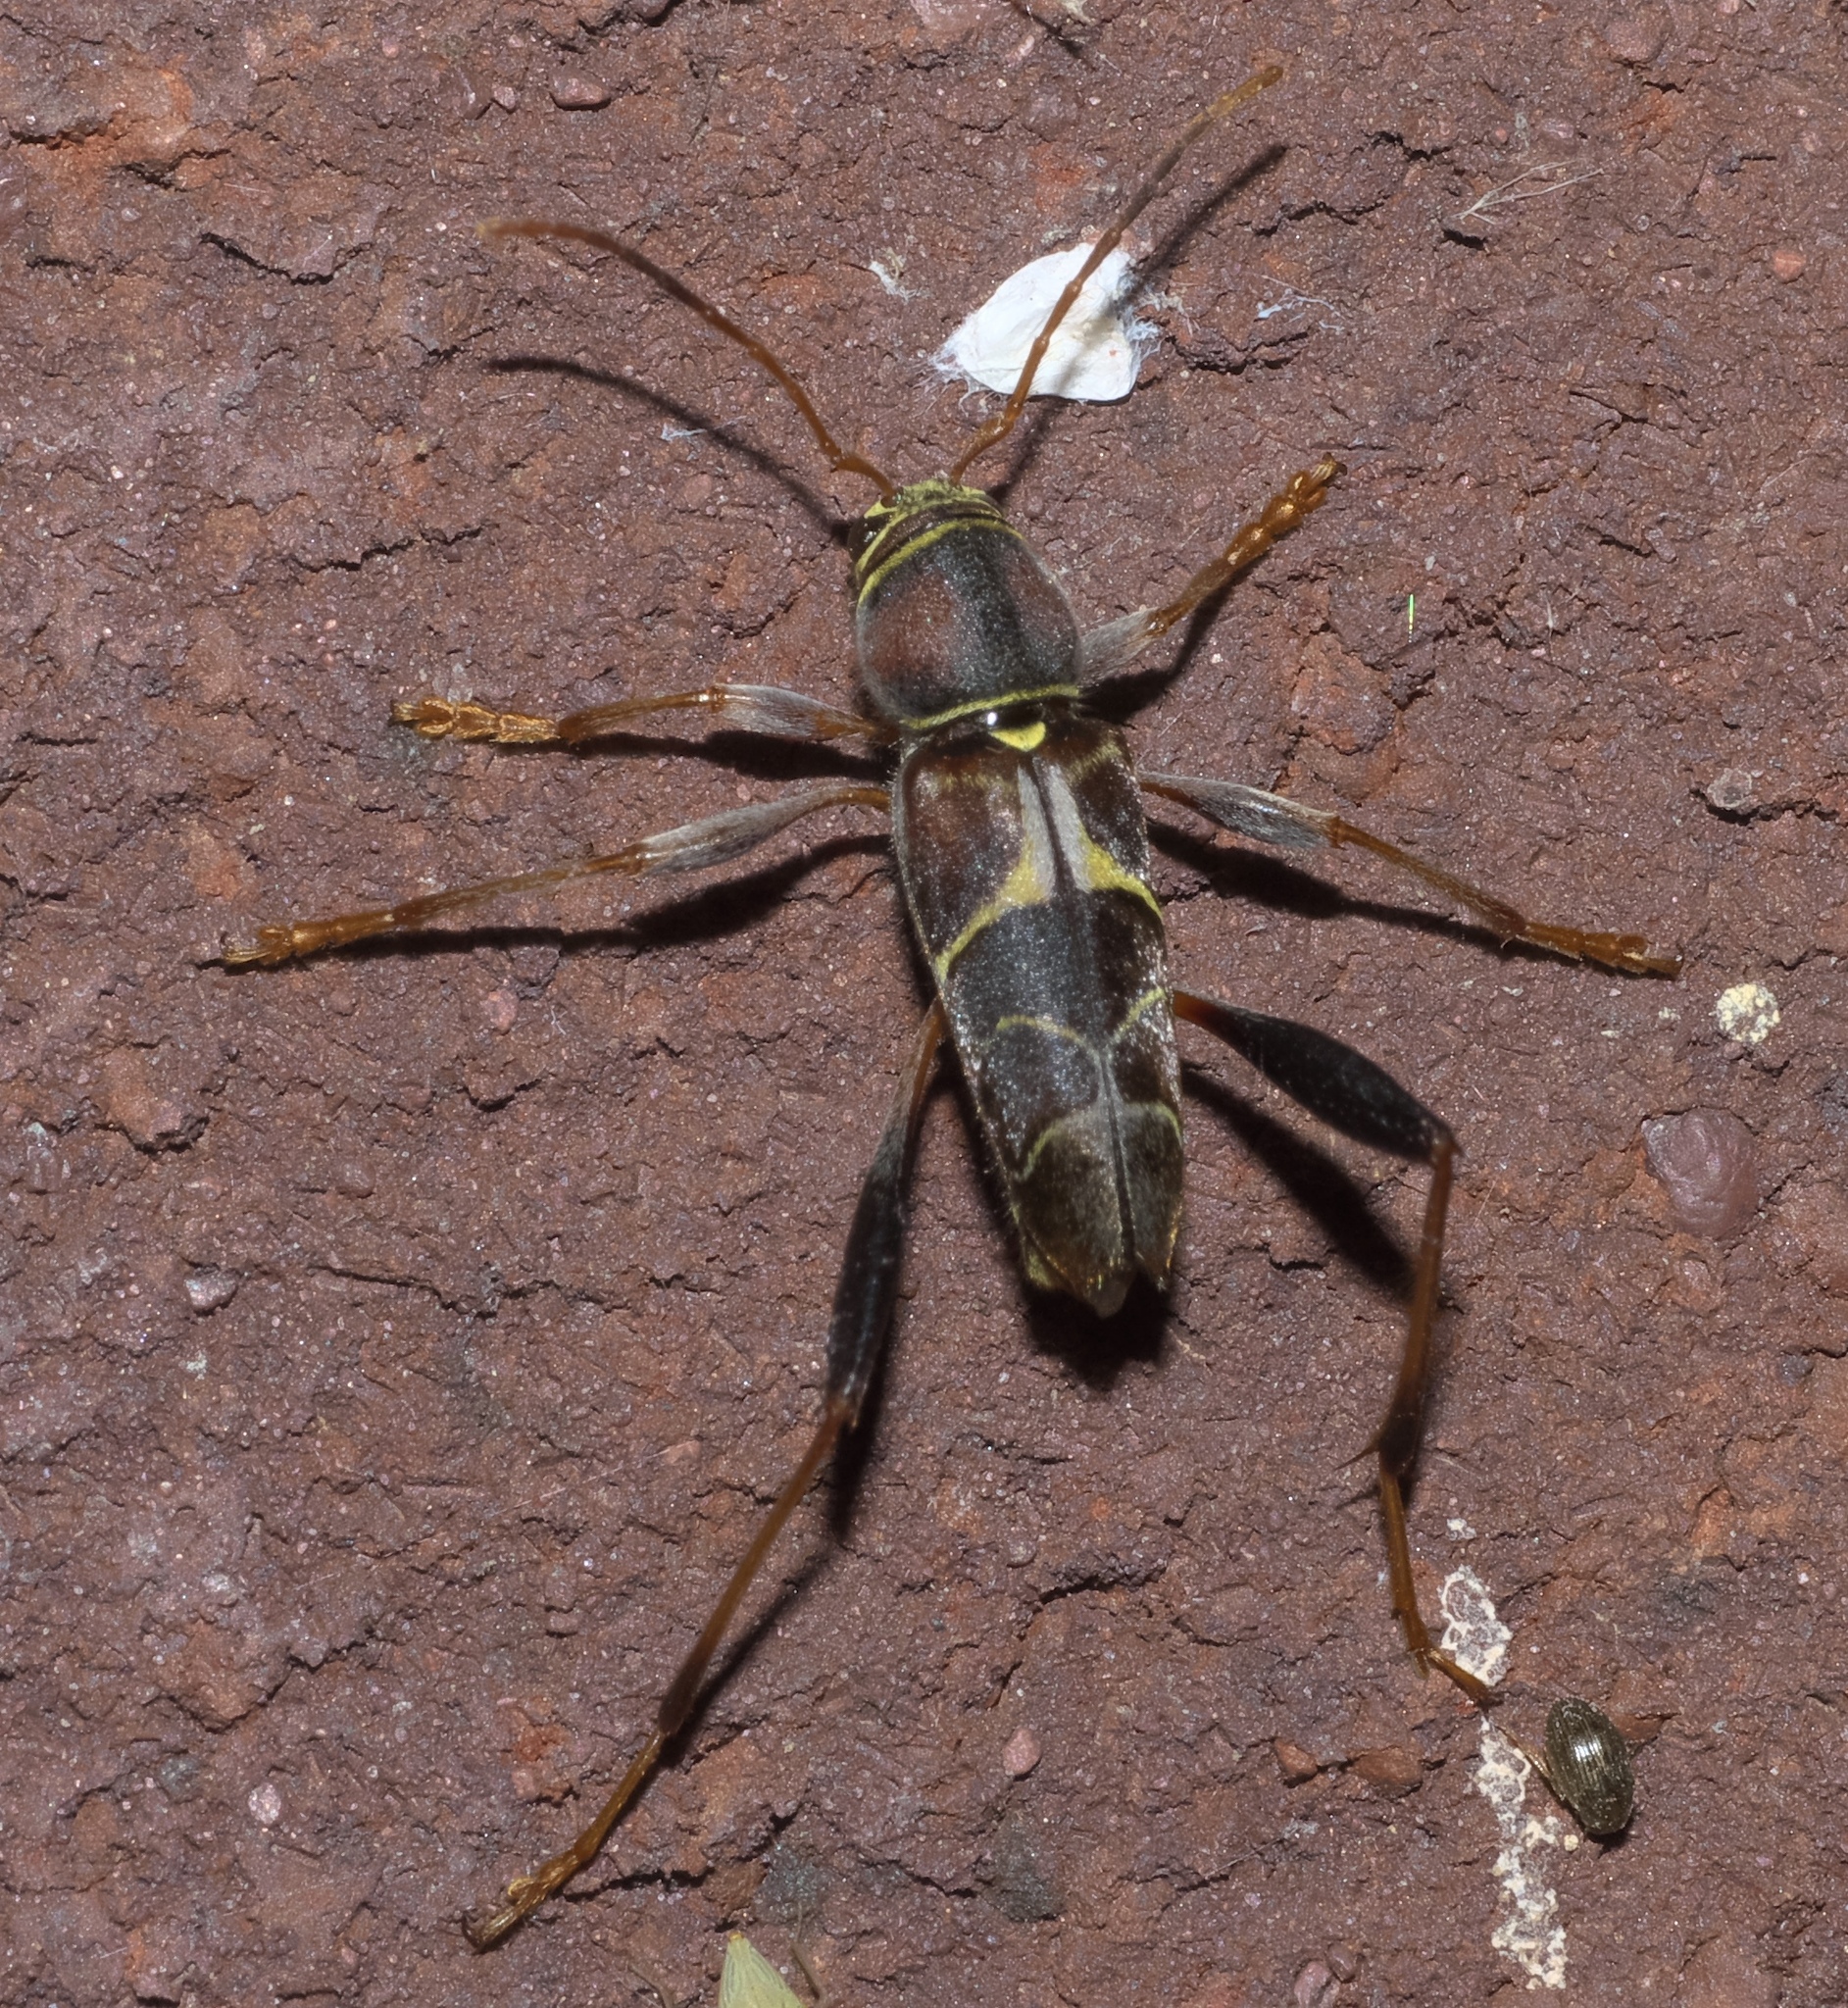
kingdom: Animalia
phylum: Arthropoda
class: Insecta
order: Coleoptera
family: Cerambycidae
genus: Neoclytus
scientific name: Neoclytus mucronatus
